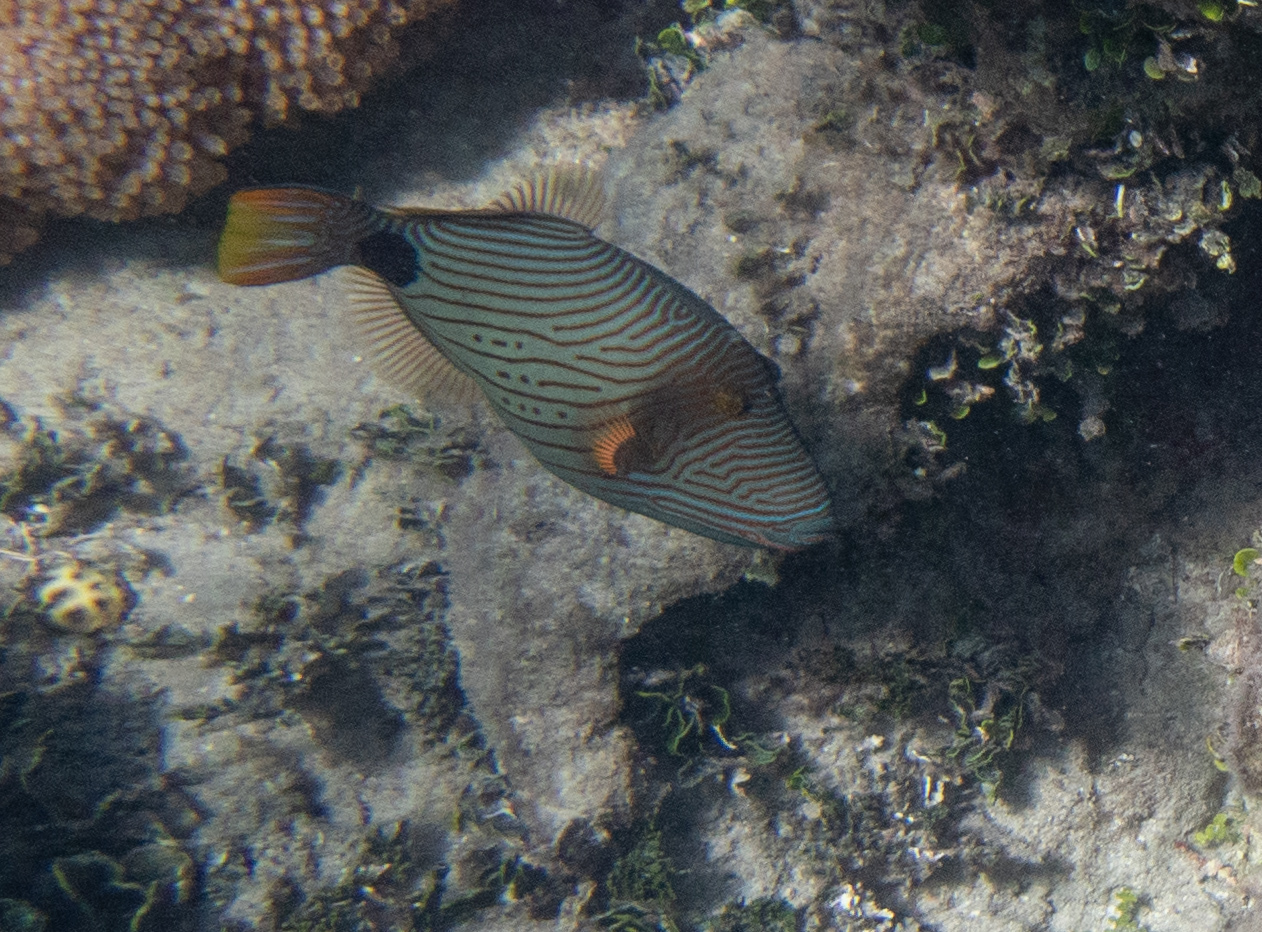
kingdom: Animalia
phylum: Chordata
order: Tetraodontiformes
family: Balistidae
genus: Balistapus
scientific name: Balistapus undulatus
